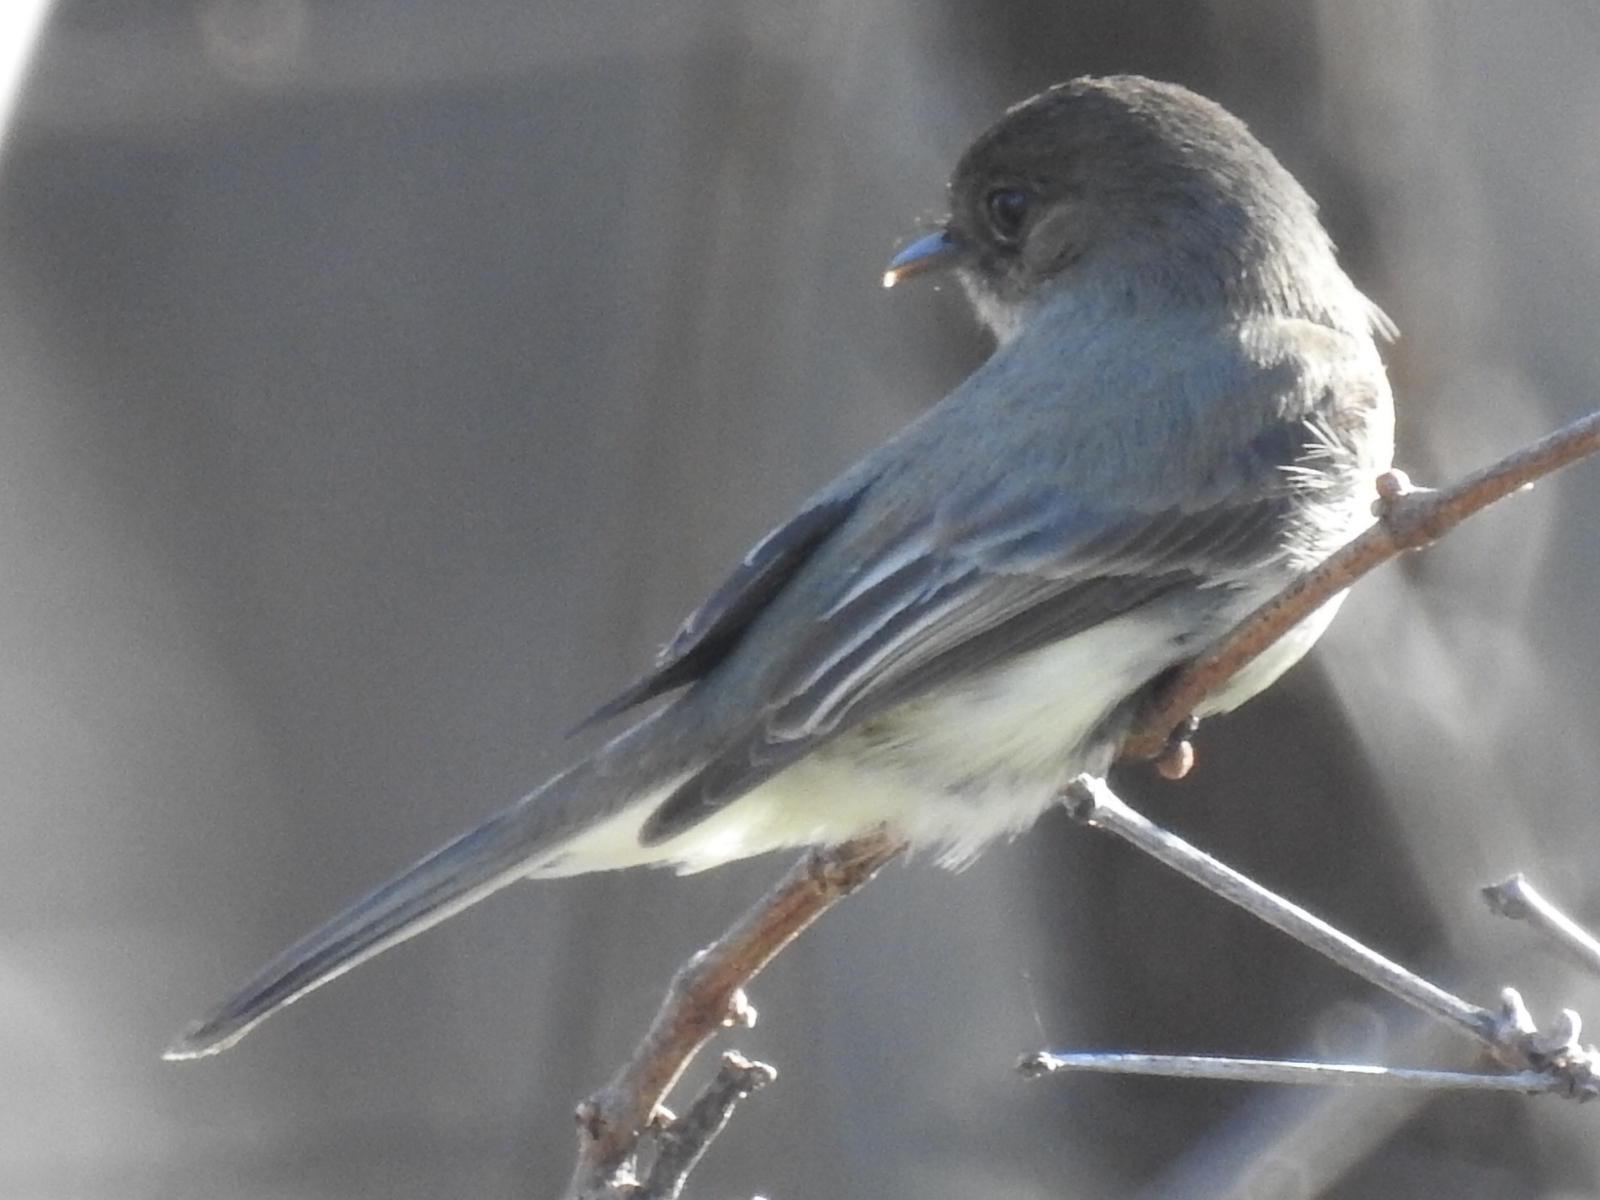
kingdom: Animalia
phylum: Chordata
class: Aves
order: Passeriformes
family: Tyrannidae
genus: Sayornis
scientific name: Sayornis phoebe
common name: Eastern phoebe
